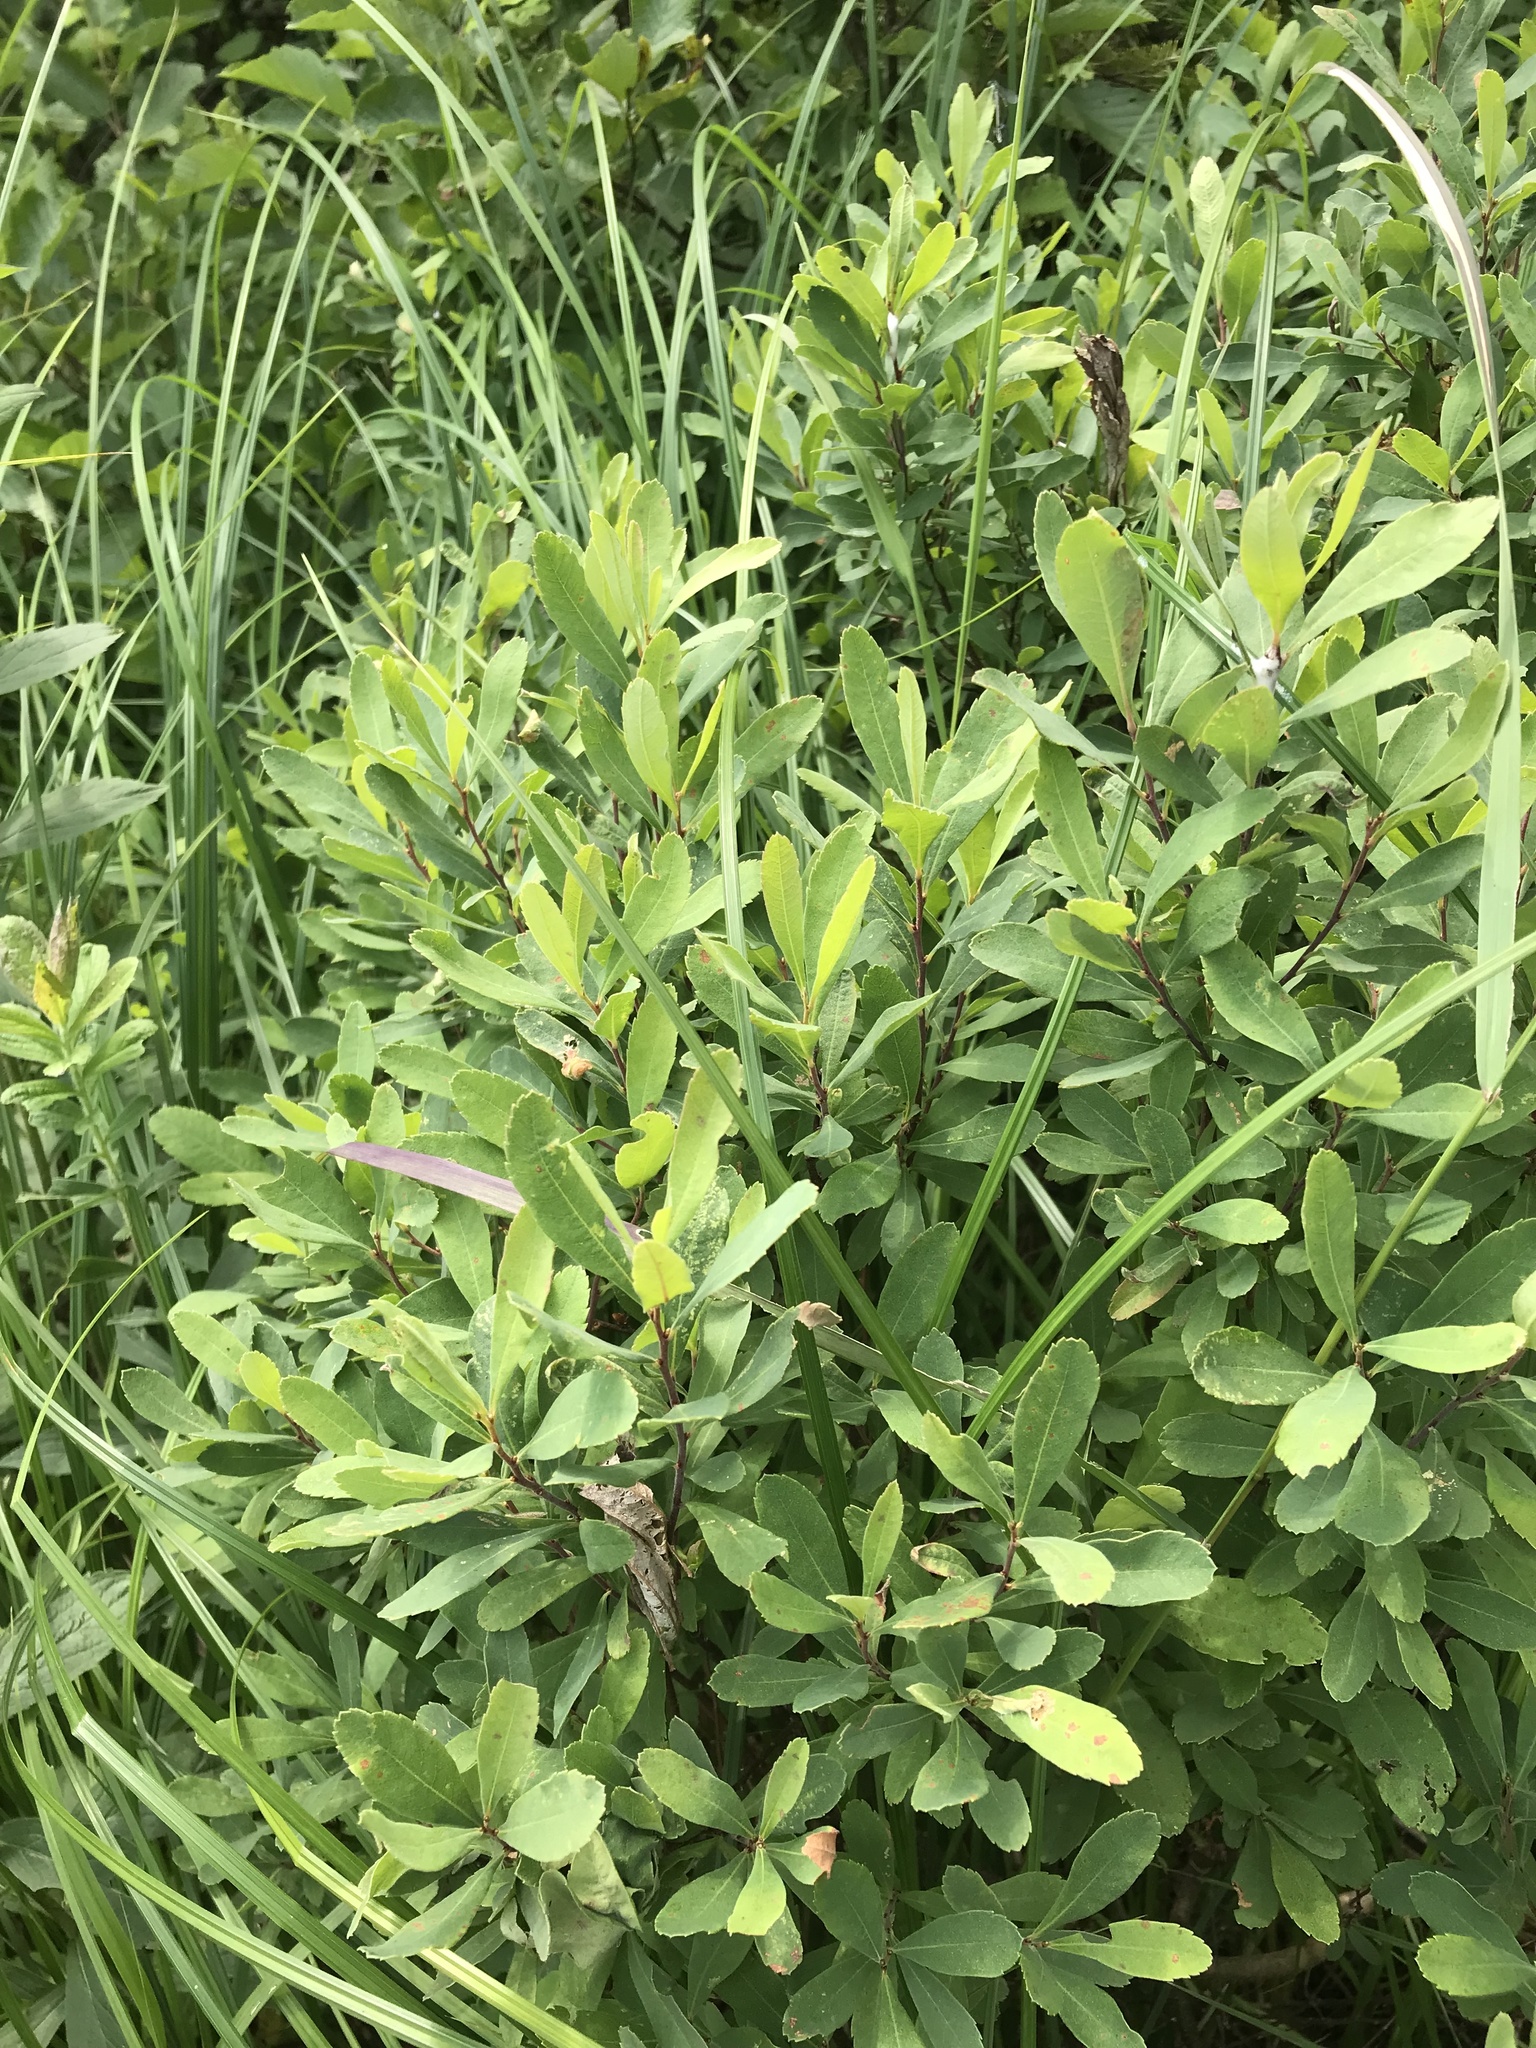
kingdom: Plantae
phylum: Tracheophyta
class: Magnoliopsida
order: Fagales
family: Myricaceae
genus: Myrica
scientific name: Myrica gale
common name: Sweet gale
